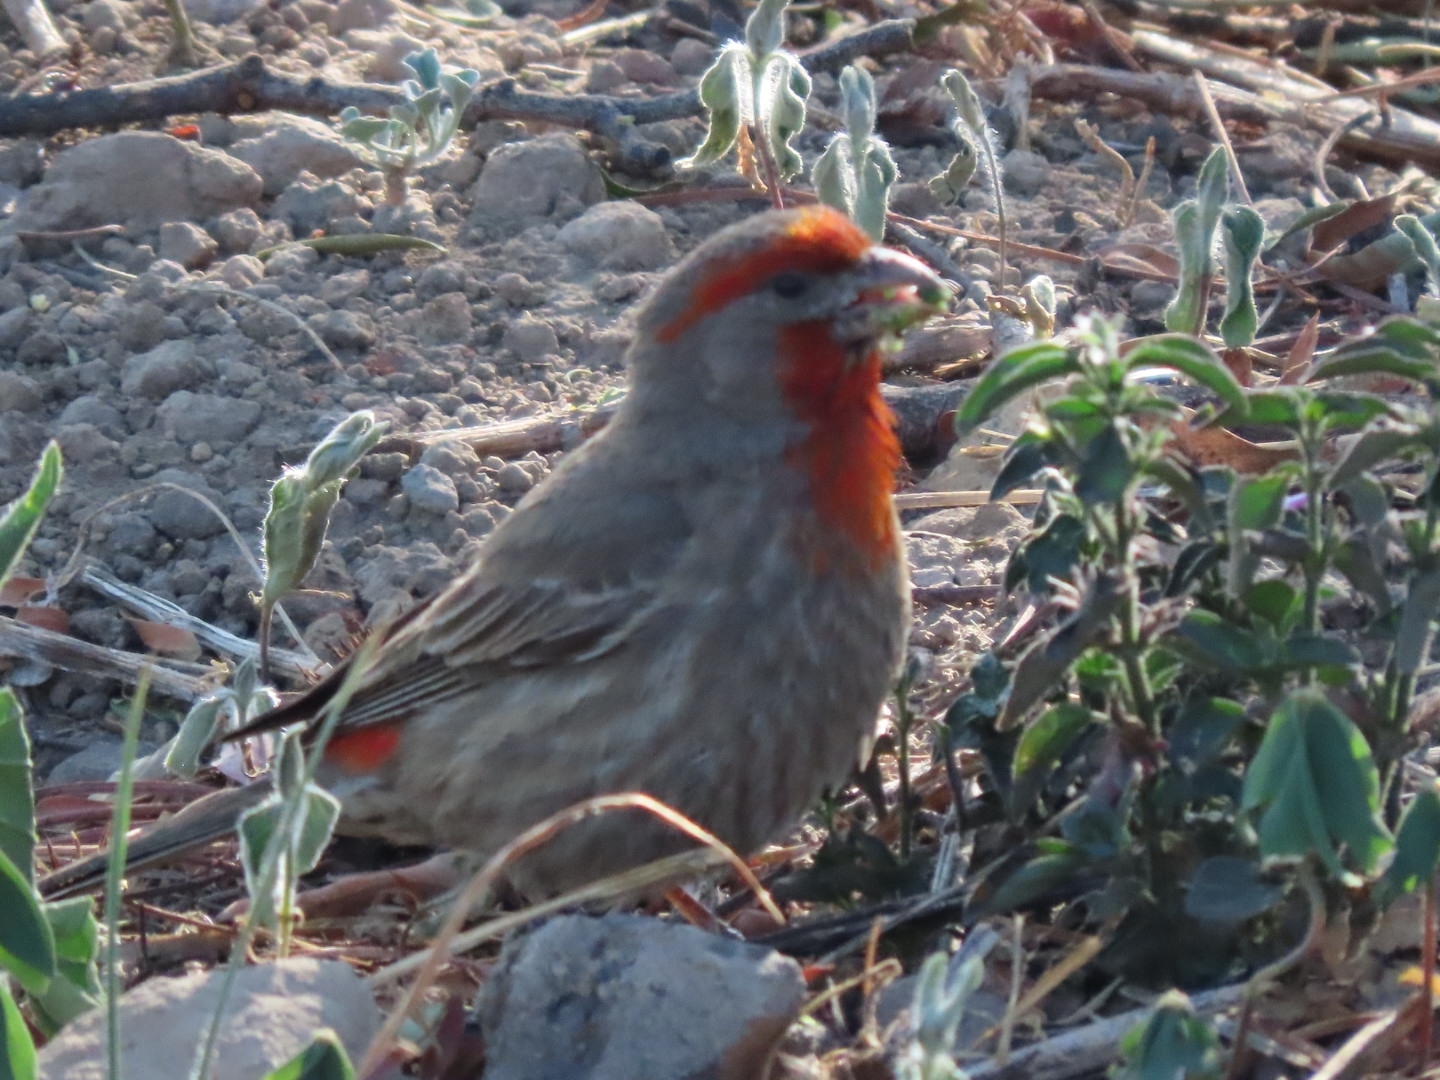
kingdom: Animalia
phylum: Chordata
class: Aves
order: Passeriformes
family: Fringillidae
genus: Haemorhous
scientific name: Haemorhous mexicanus
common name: House finch
